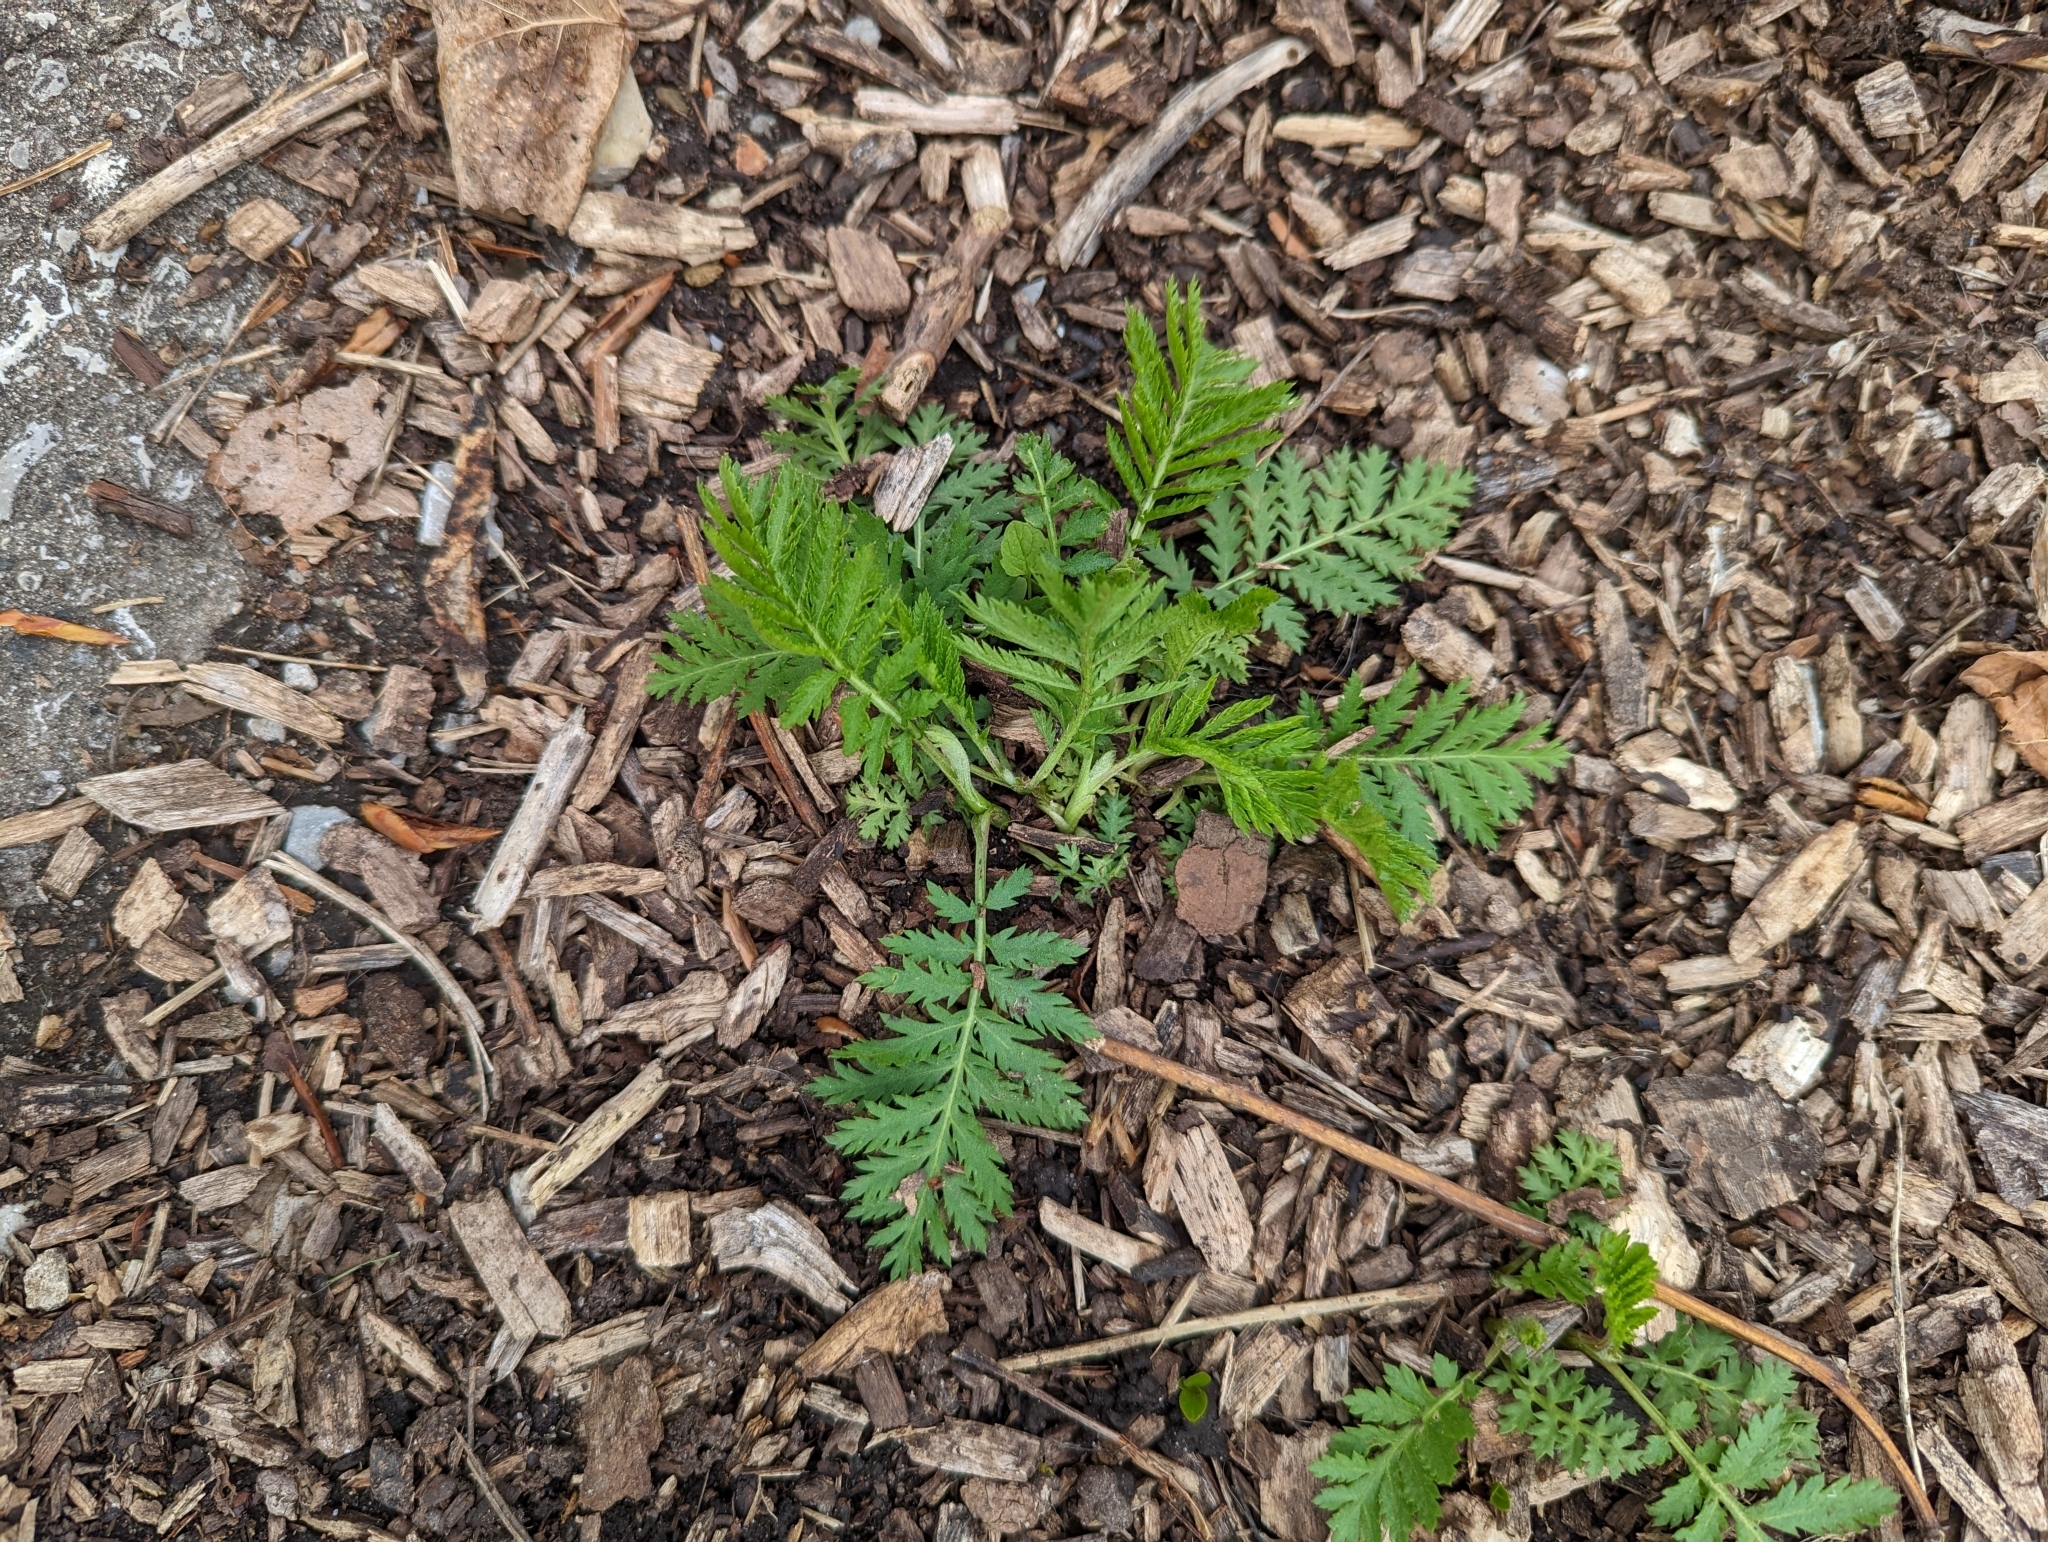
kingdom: Plantae
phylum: Tracheophyta
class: Magnoliopsida
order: Asterales
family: Asteraceae
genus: Tanacetum
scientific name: Tanacetum vulgare
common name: Common tansy
